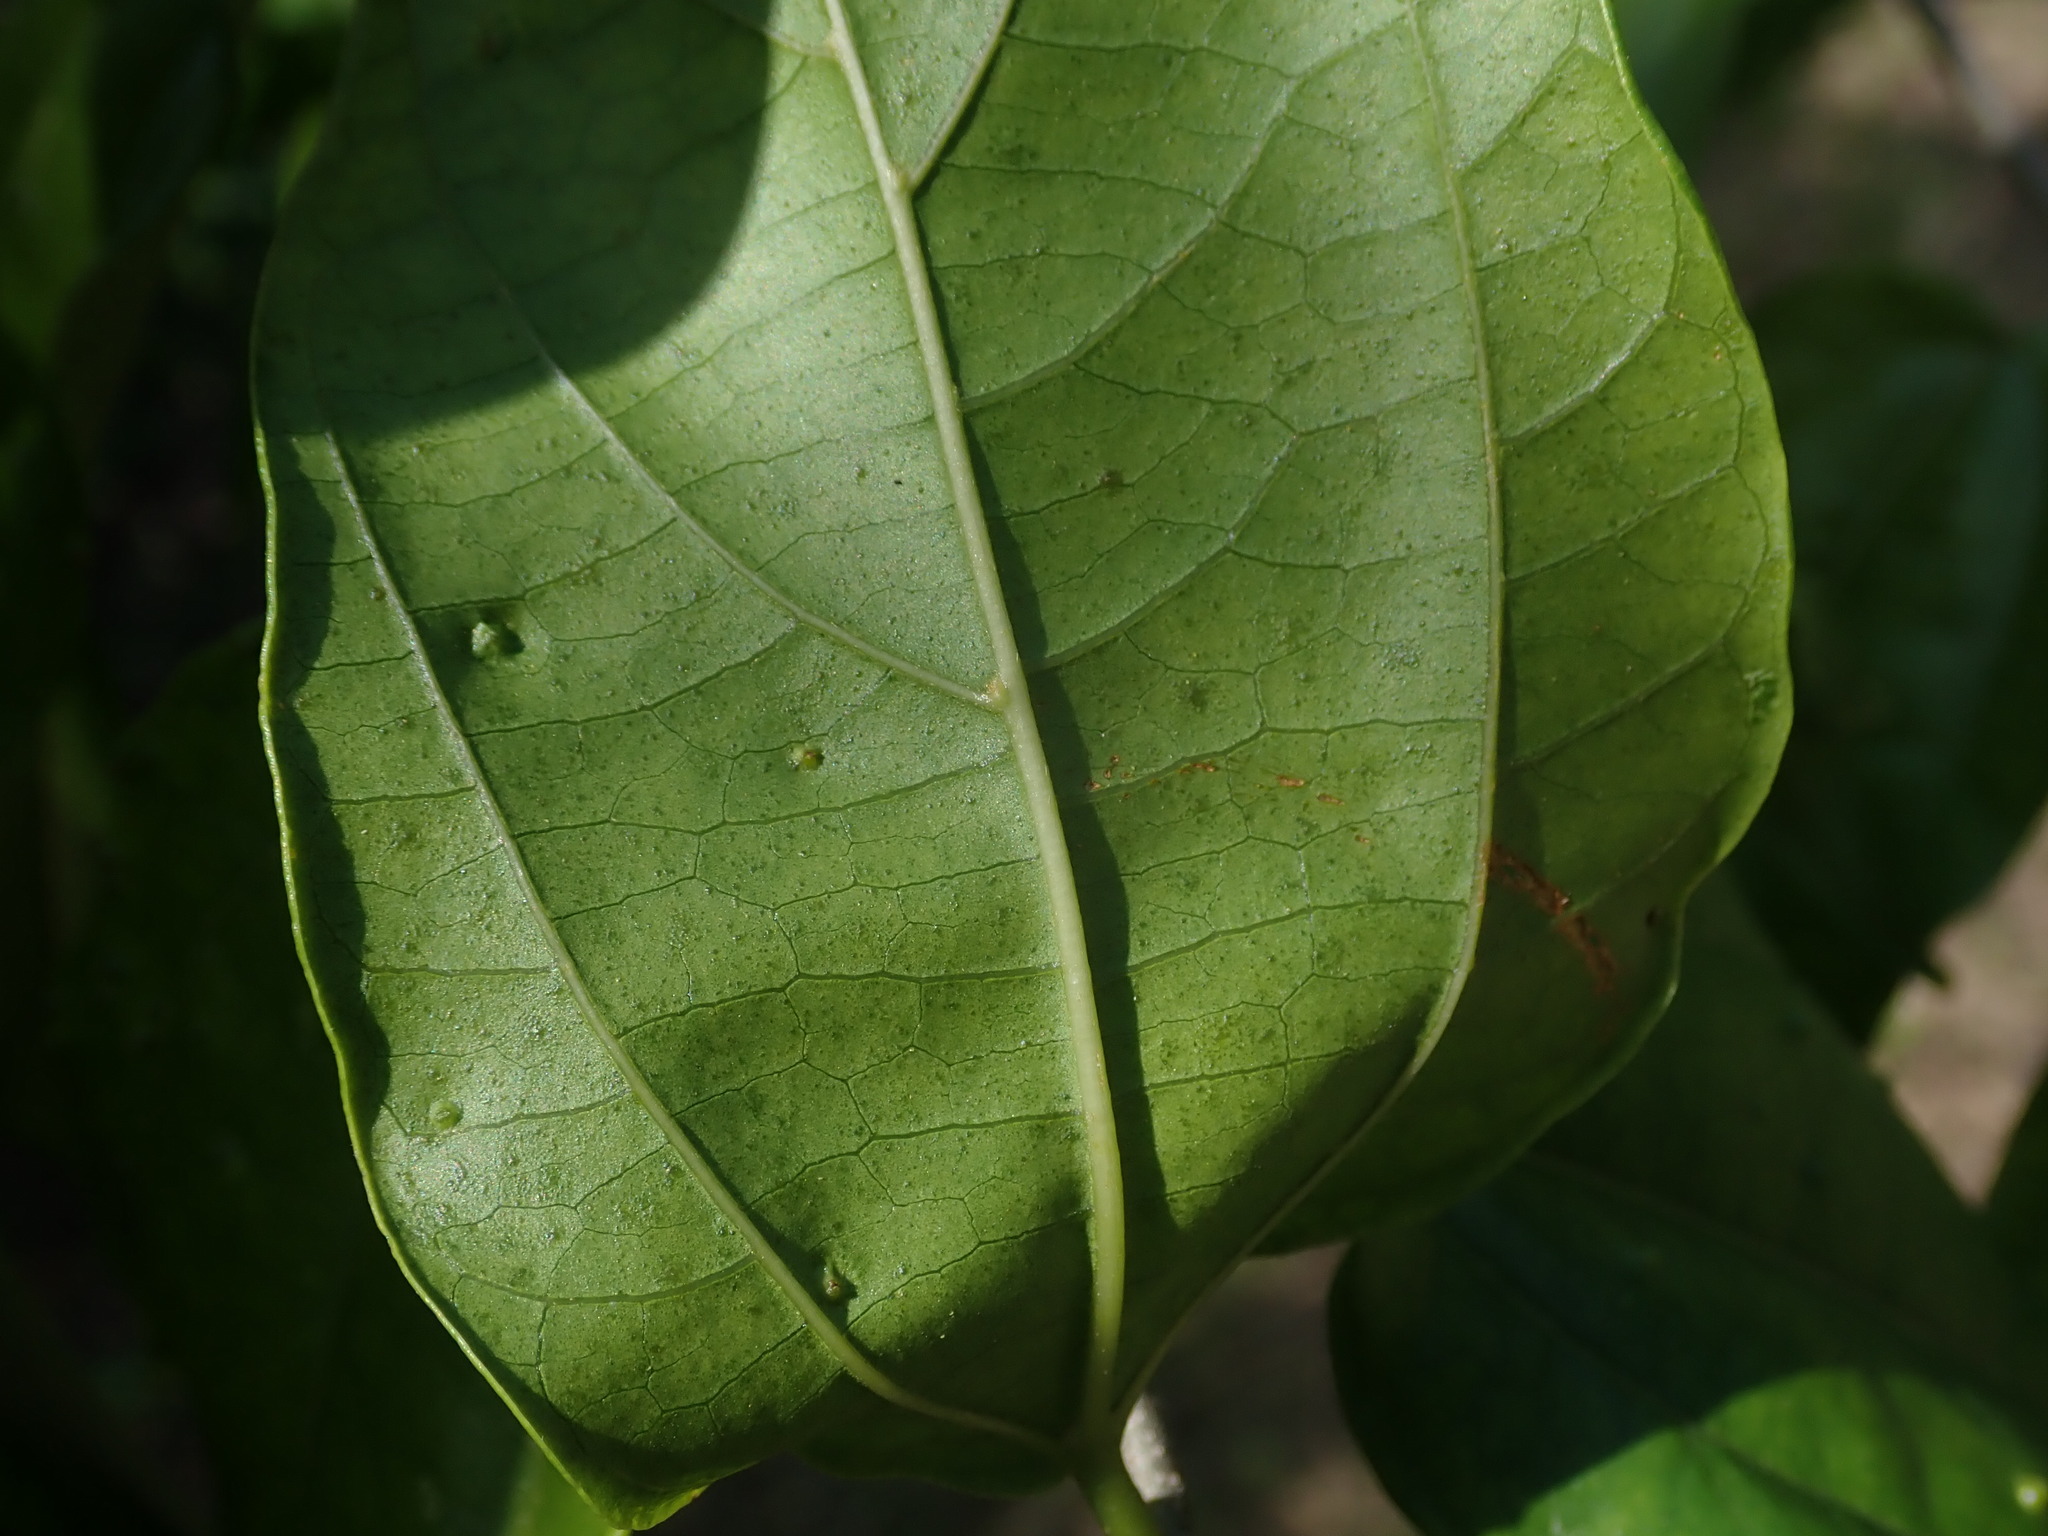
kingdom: Plantae
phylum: Tracheophyta
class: Magnoliopsida
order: Rosales
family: Cannabaceae
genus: Celtis
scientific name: Celtis iguanaea
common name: Iguana hackberry
